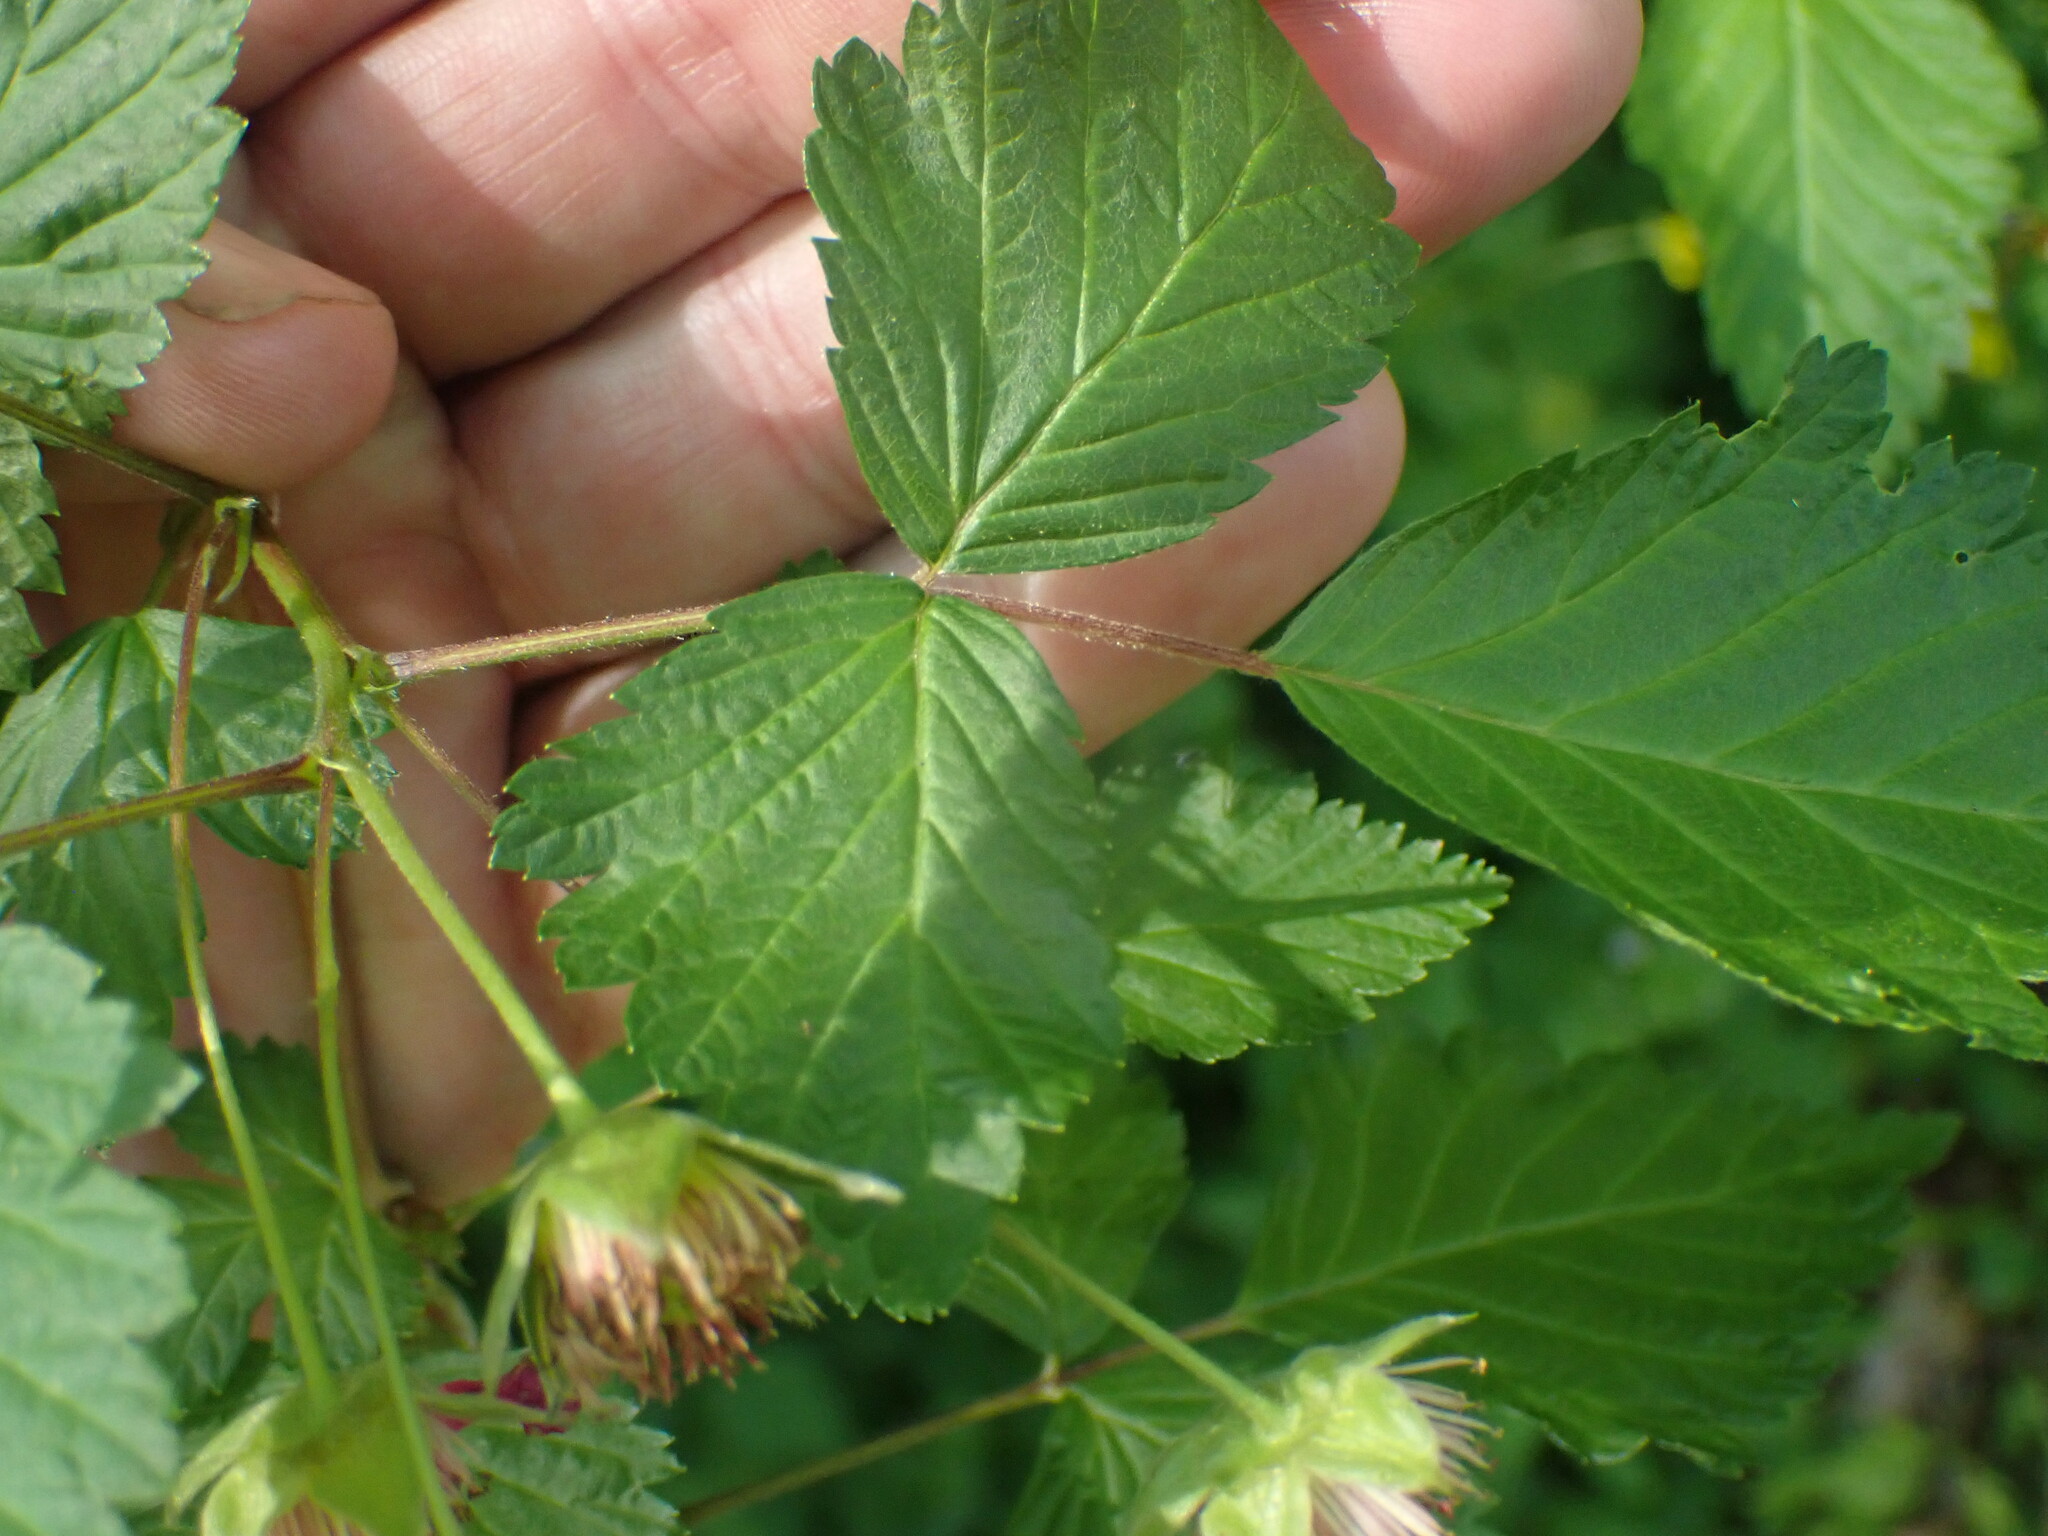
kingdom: Plantae
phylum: Tracheophyta
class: Magnoliopsida
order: Rosales
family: Rosaceae
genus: Rubus
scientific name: Rubus spectabilis
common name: Salmonberry
